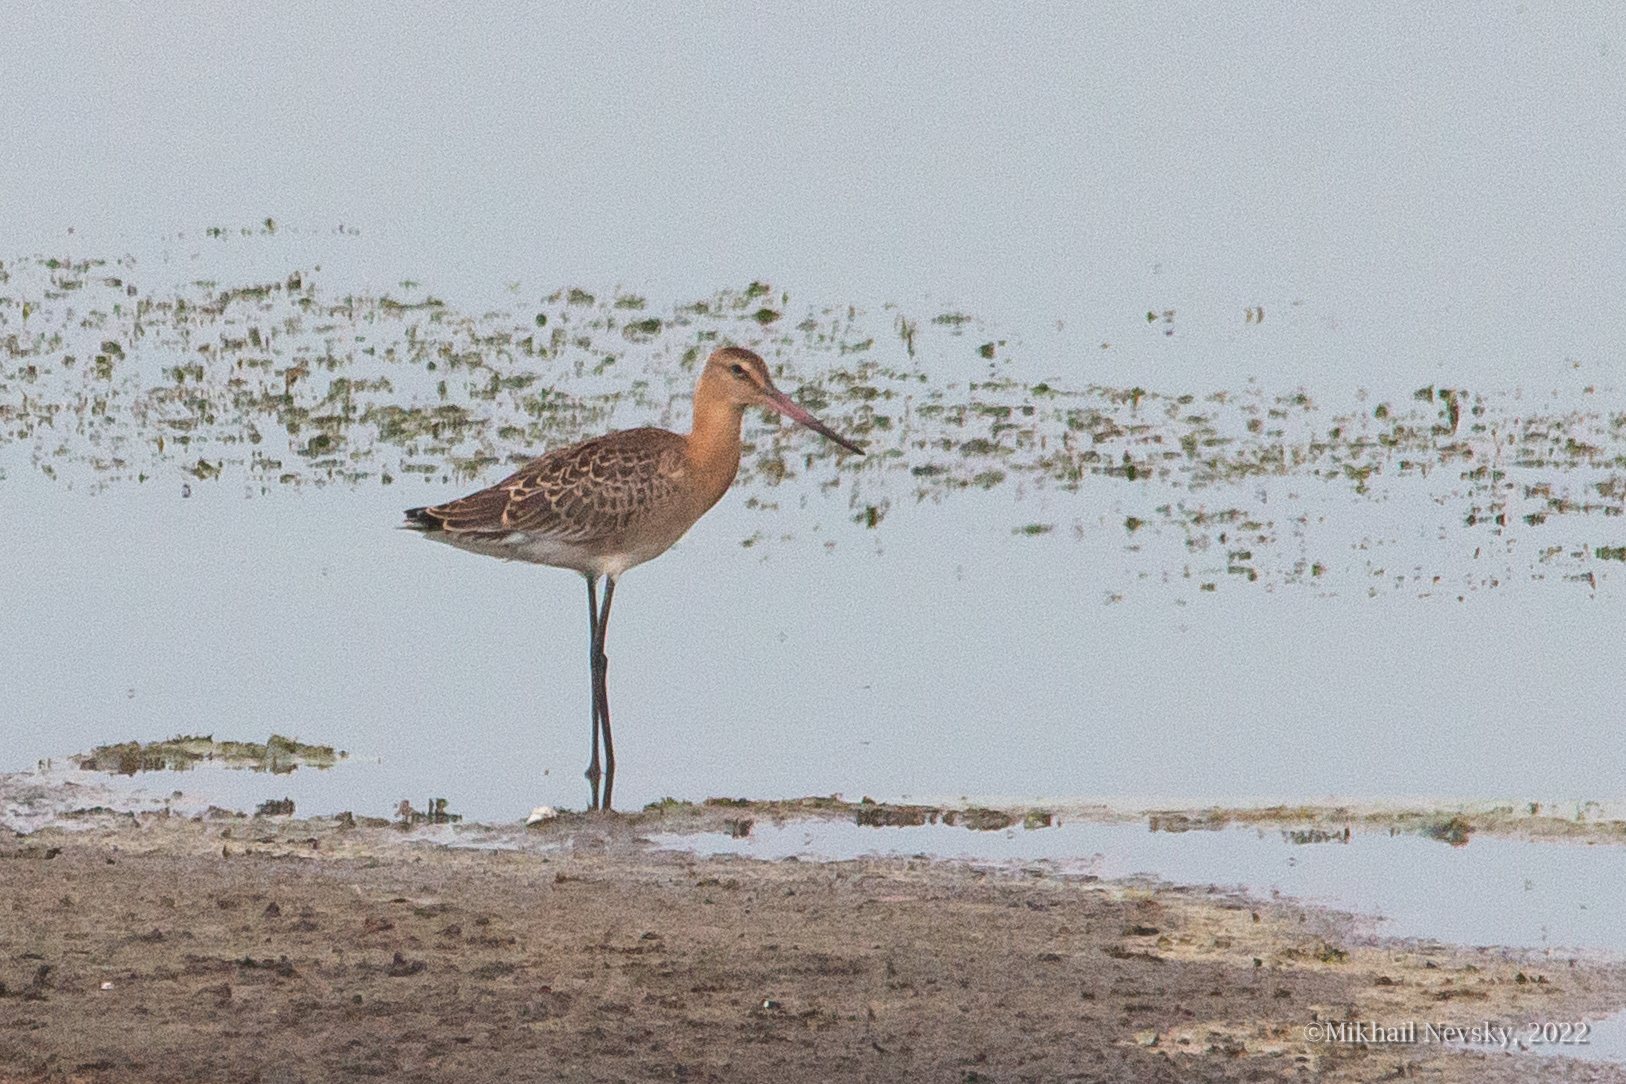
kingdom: Animalia
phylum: Chordata
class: Aves
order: Charadriiformes
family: Scolopacidae
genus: Limosa
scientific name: Limosa limosa
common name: Black-tailed godwit
